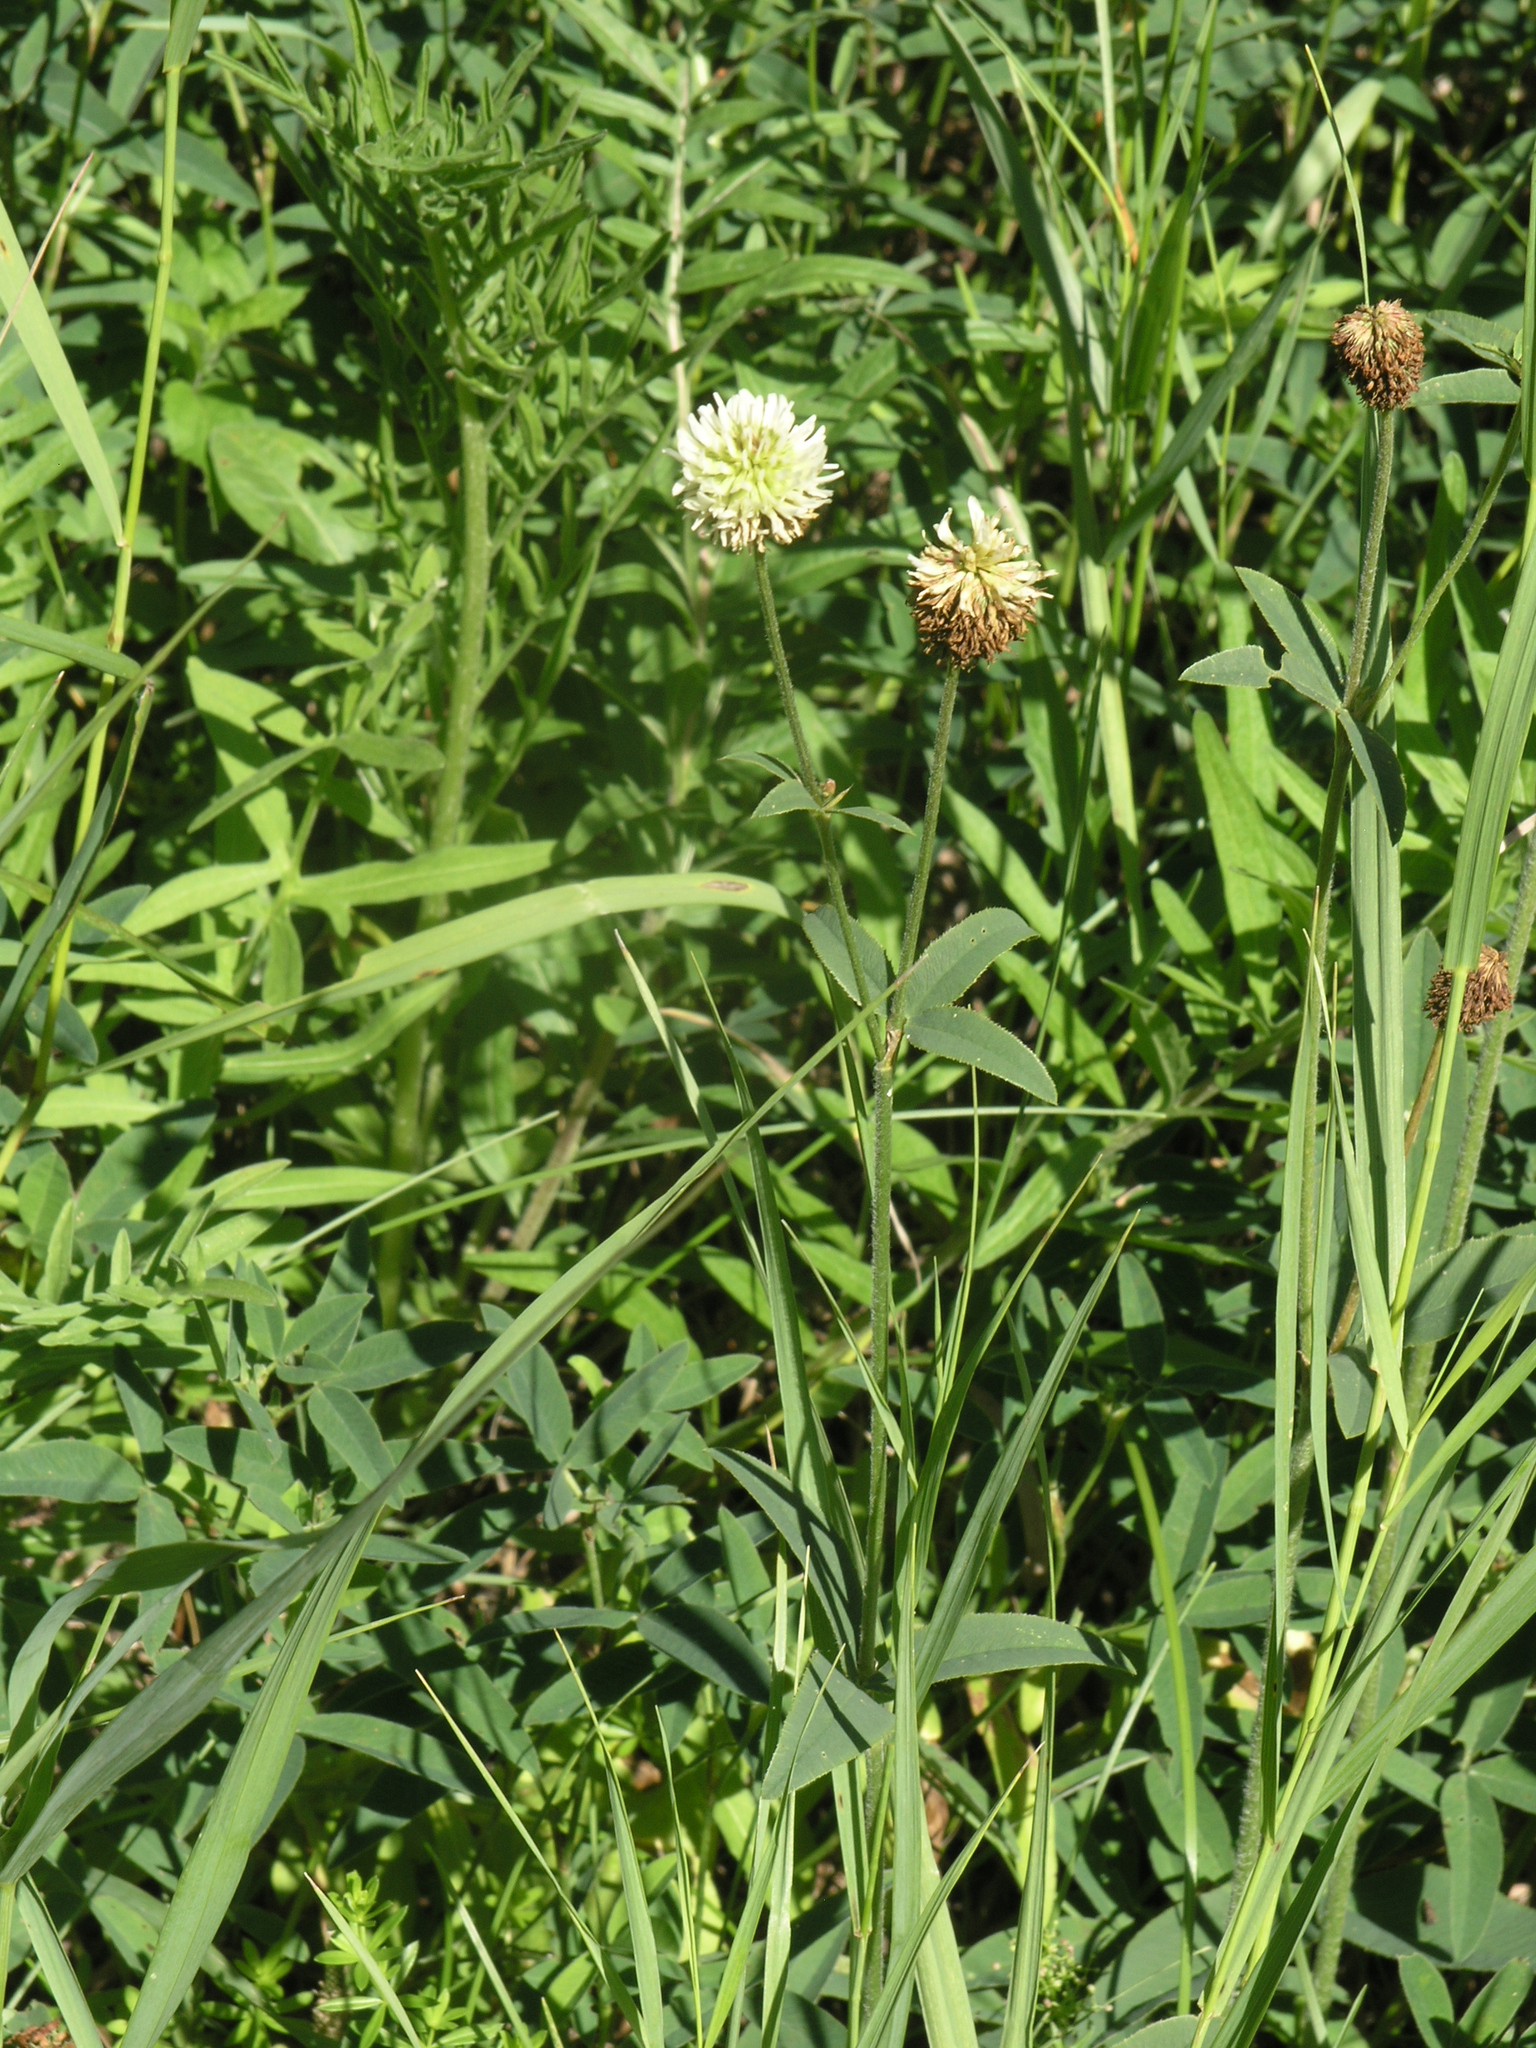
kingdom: Plantae
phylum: Tracheophyta
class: Magnoliopsida
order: Fabales
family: Fabaceae
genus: Trifolium
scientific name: Trifolium montanum
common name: Mountain clover
